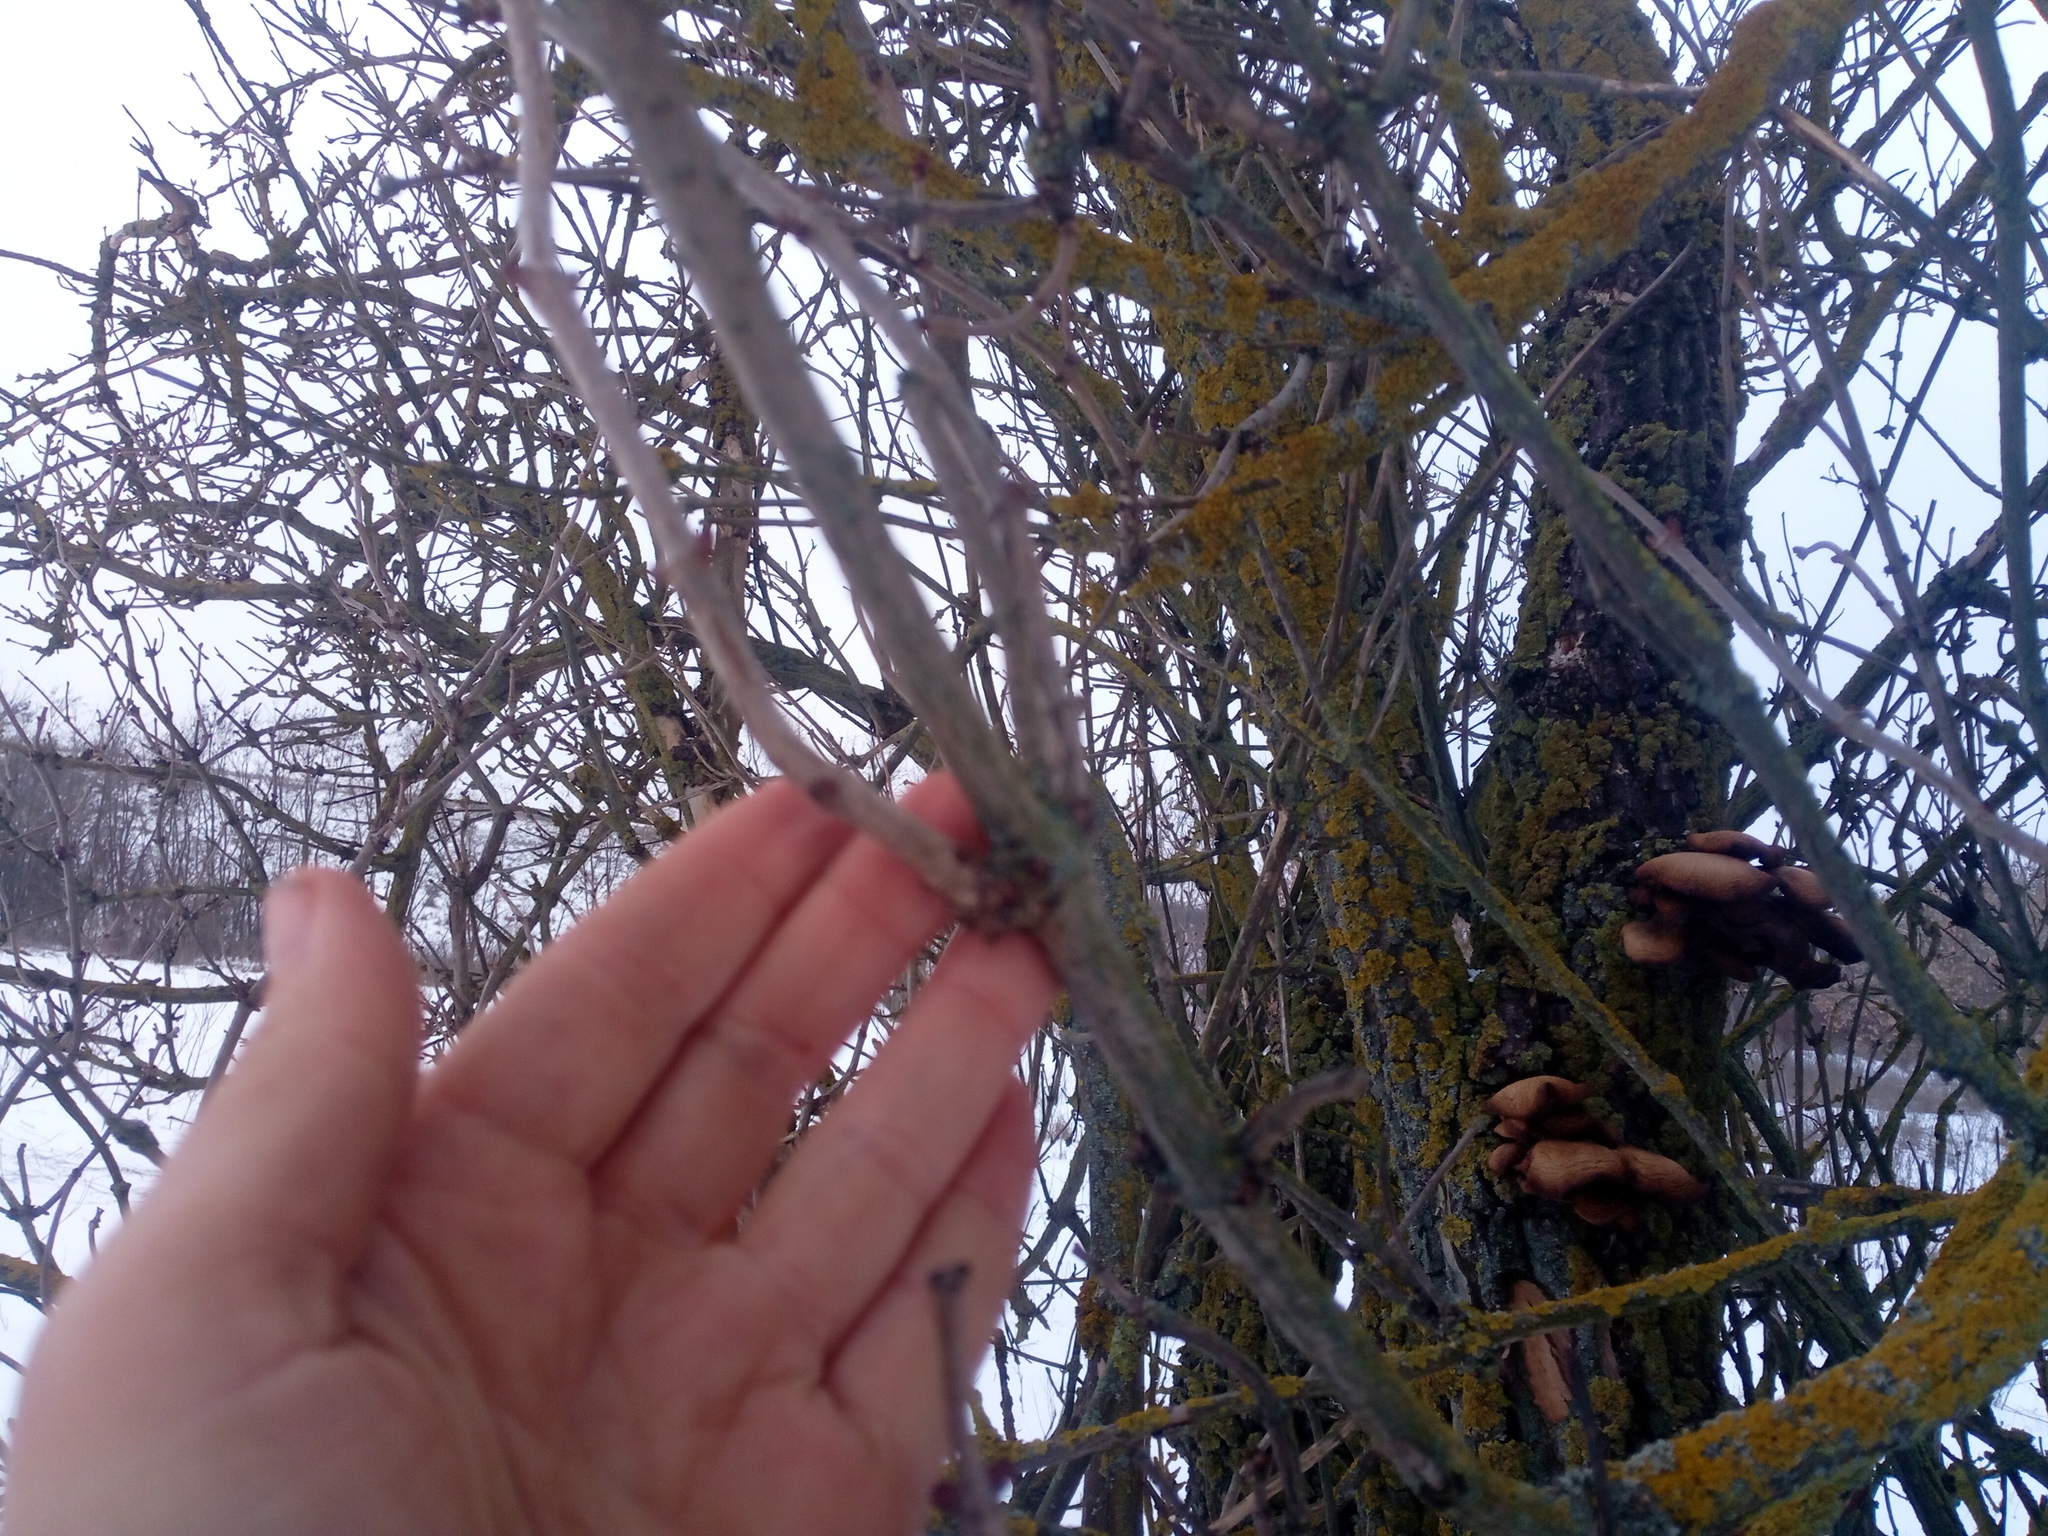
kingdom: Plantae
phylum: Tracheophyta
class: Magnoliopsida
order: Dipsacales
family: Viburnaceae
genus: Sambucus
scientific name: Sambucus nigra
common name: Elder
